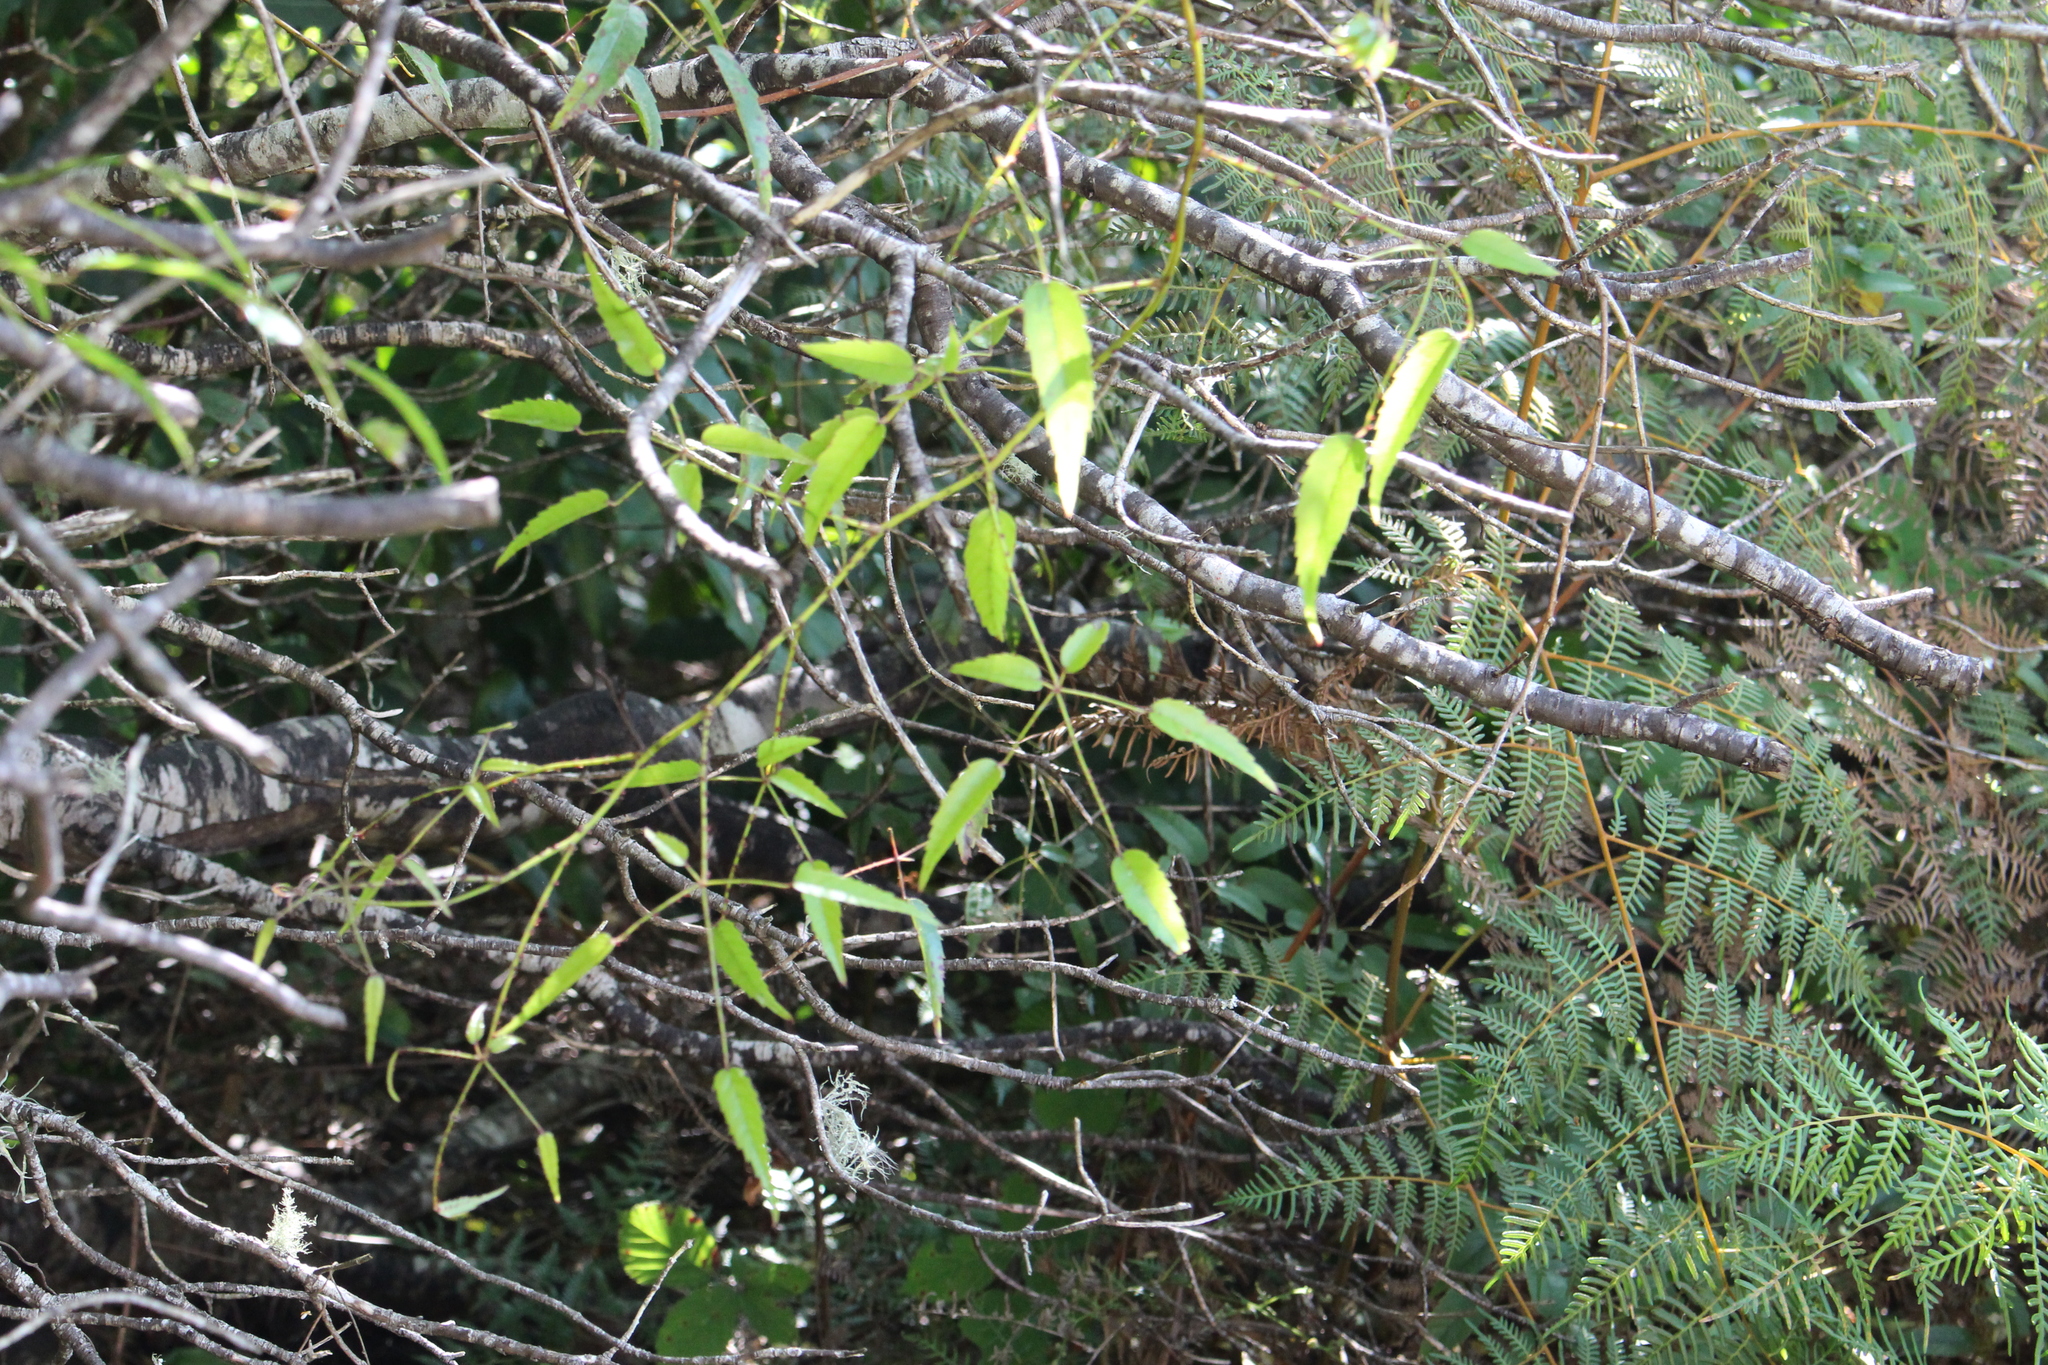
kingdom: Plantae
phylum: Tracheophyta
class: Magnoliopsida
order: Rosales
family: Rosaceae
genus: Rubus
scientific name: Rubus schmidelioides
